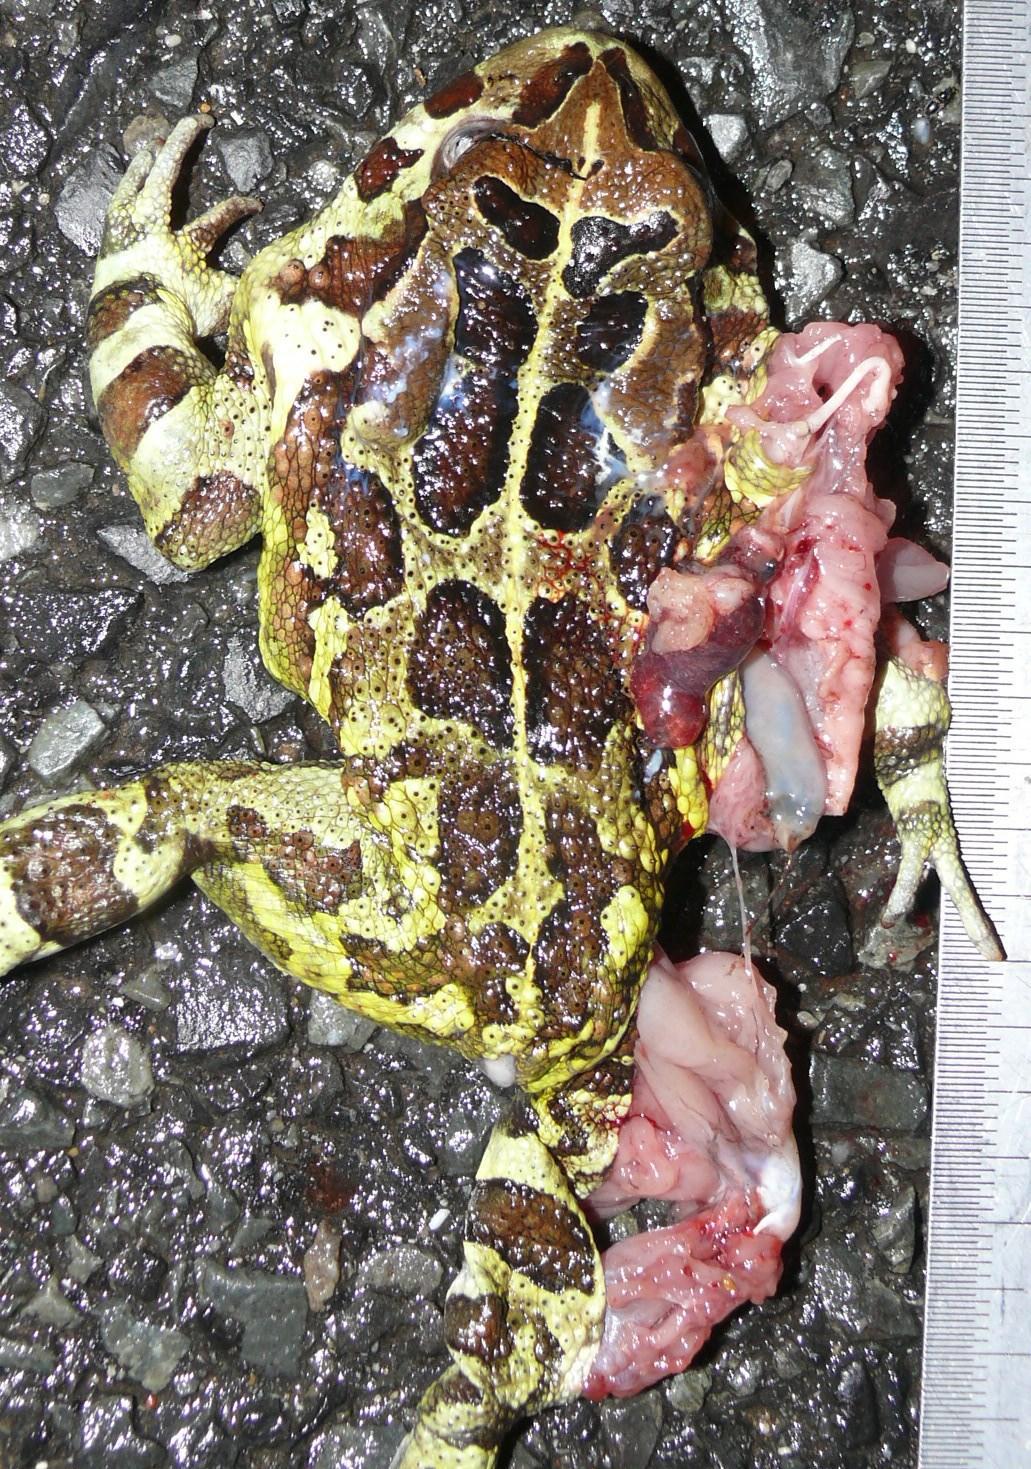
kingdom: Animalia
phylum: Chordata
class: Amphibia
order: Anura
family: Bufonidae
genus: Sclerophrys
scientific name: Sclerophrys pantherina
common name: Panther toad
